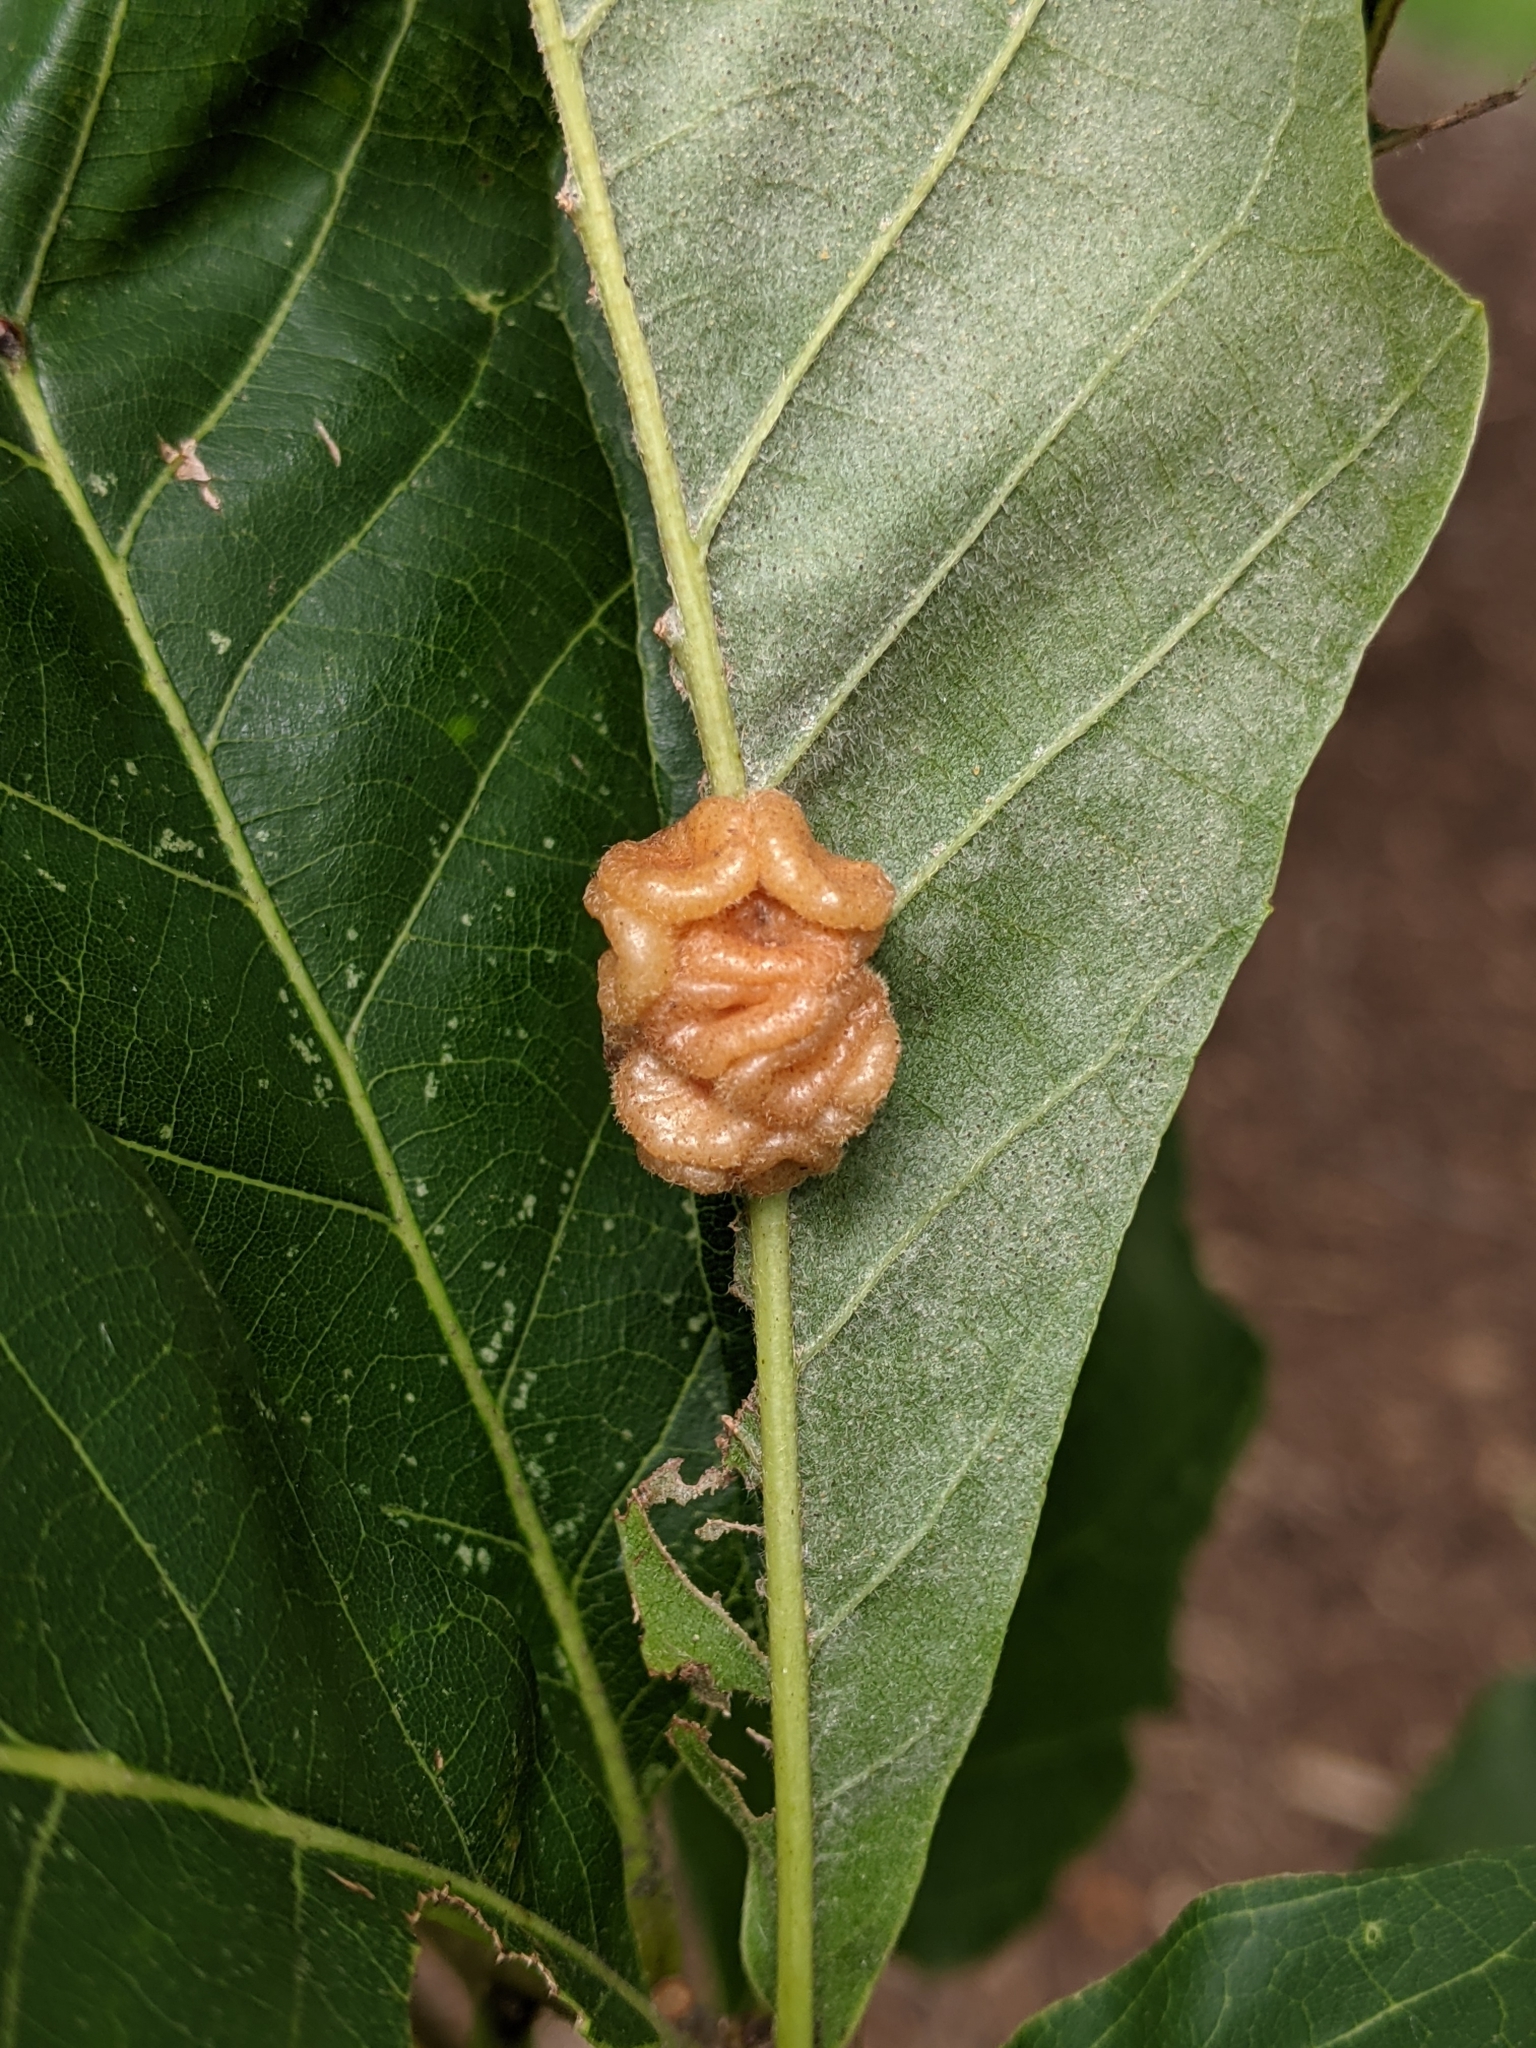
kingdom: Animalia
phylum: Arthropoda
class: Insecta
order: Hymenoptera
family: Cynipidae
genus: Andricus
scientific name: Andricus
